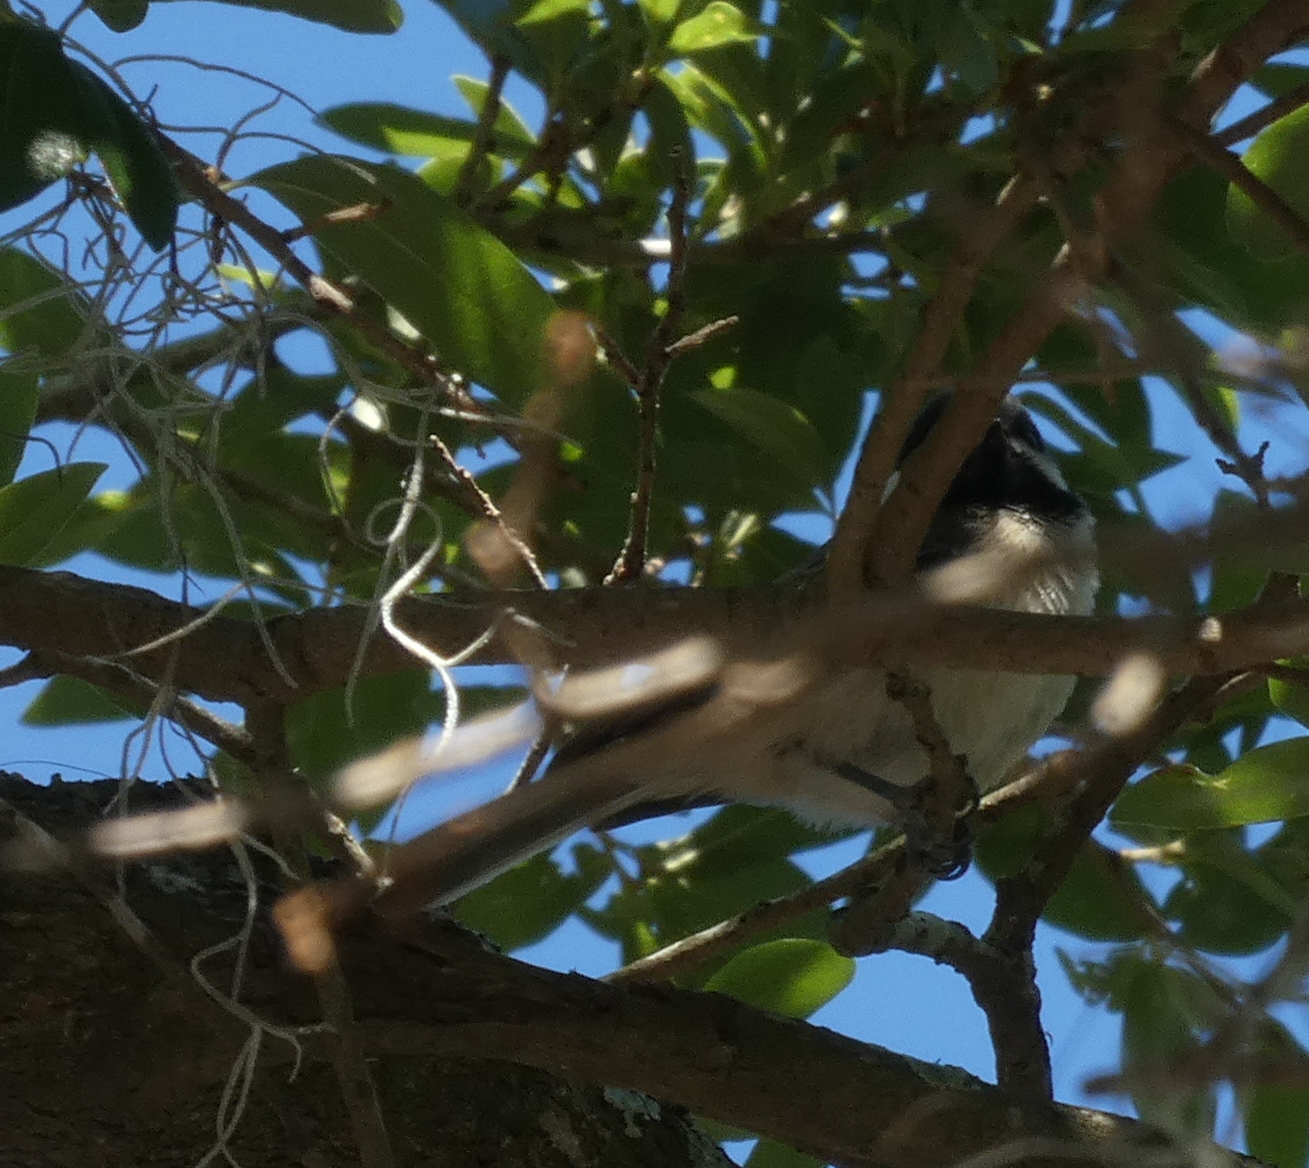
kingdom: Animalia
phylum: Chordata
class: Aves
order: Passeriformes
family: Paridae
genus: Poecile
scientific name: Poecile carolinensis
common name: Carolina chickadee
